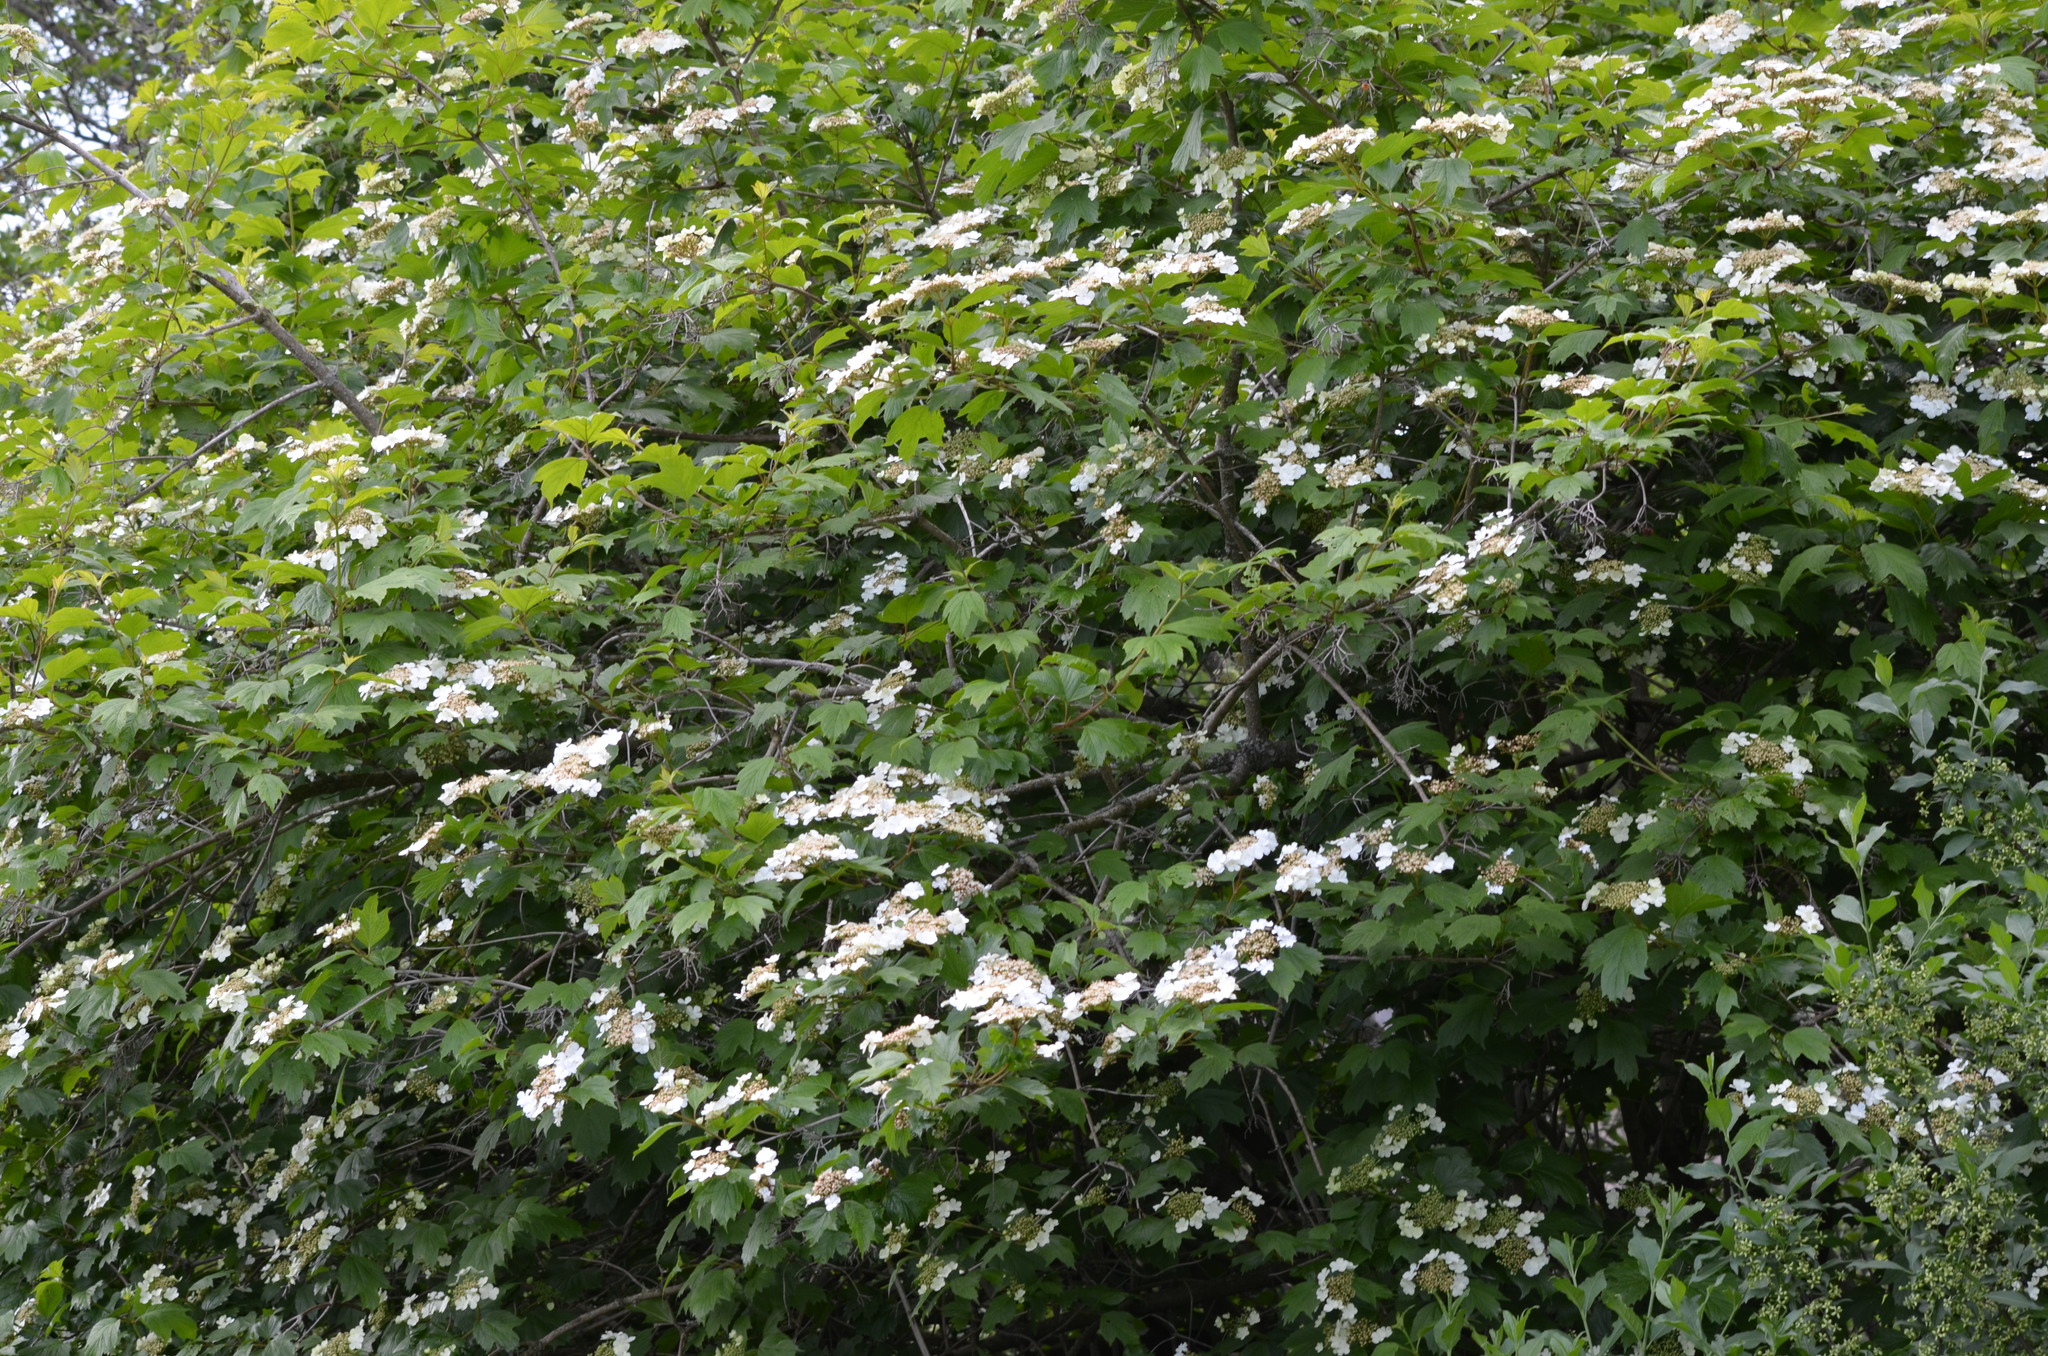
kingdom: Plantae
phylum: Tracheophyta
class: Magnoliopsida
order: Dipsacales
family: Viburnaceae
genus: Viburnum
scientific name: Viburnum opulus
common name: Guelder-rose
